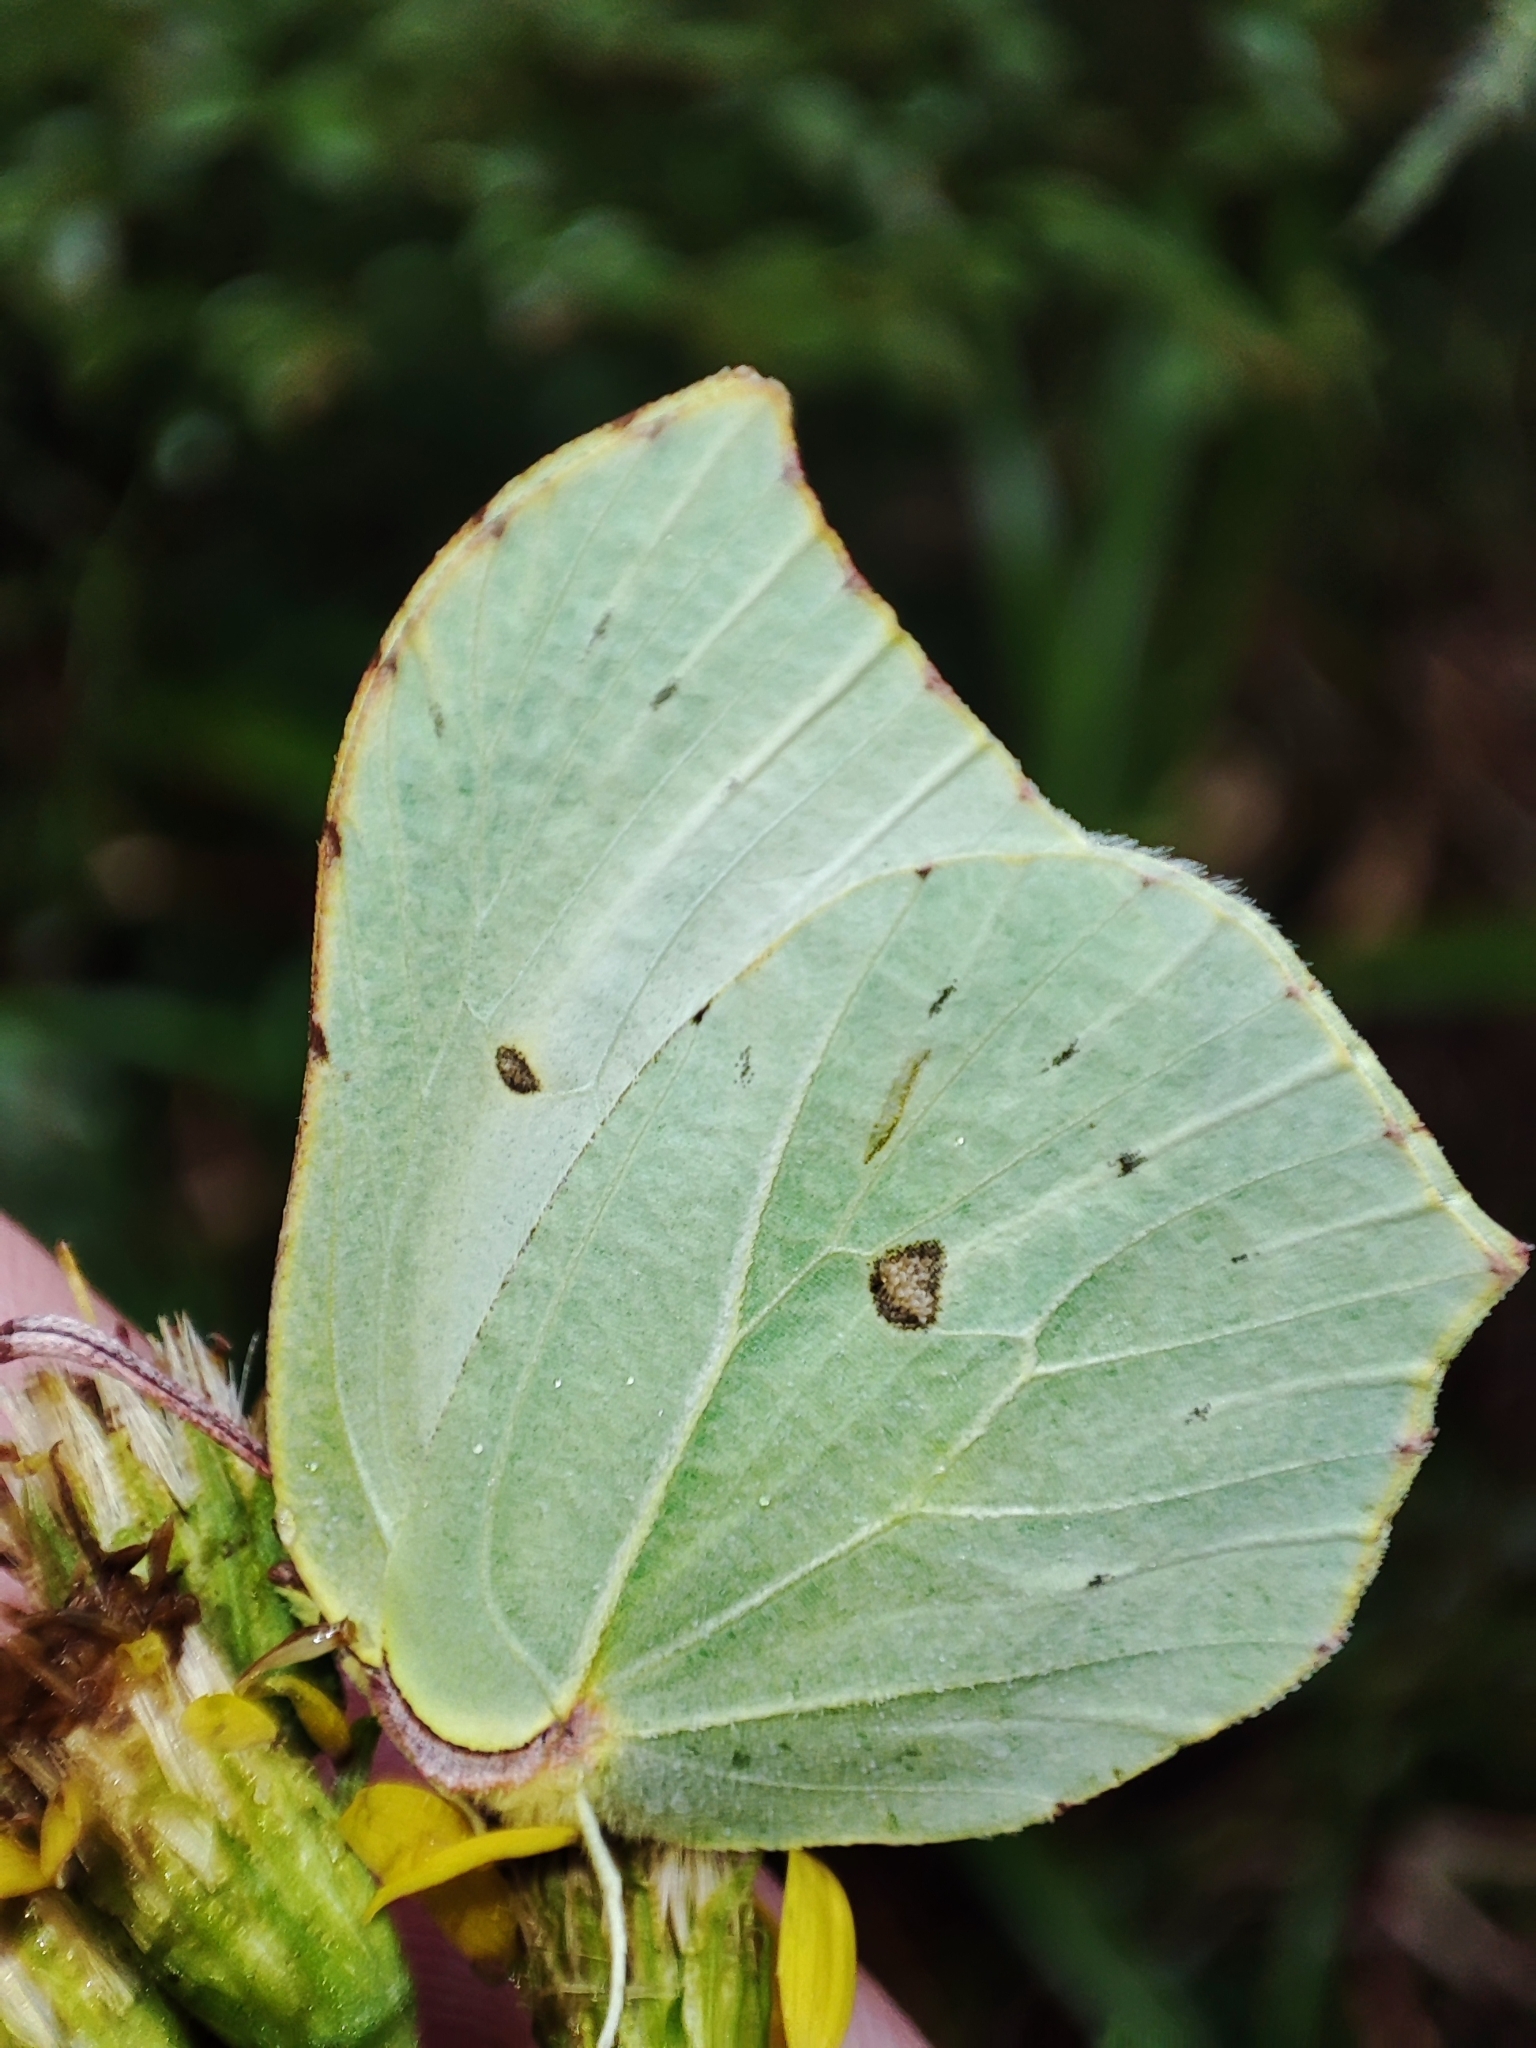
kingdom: Animalia
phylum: Arthropoda
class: Insecta
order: Lepidoptera
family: Pieridae
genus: Gonepteryx
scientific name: Gonepteryx rhamni
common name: Brimstone
